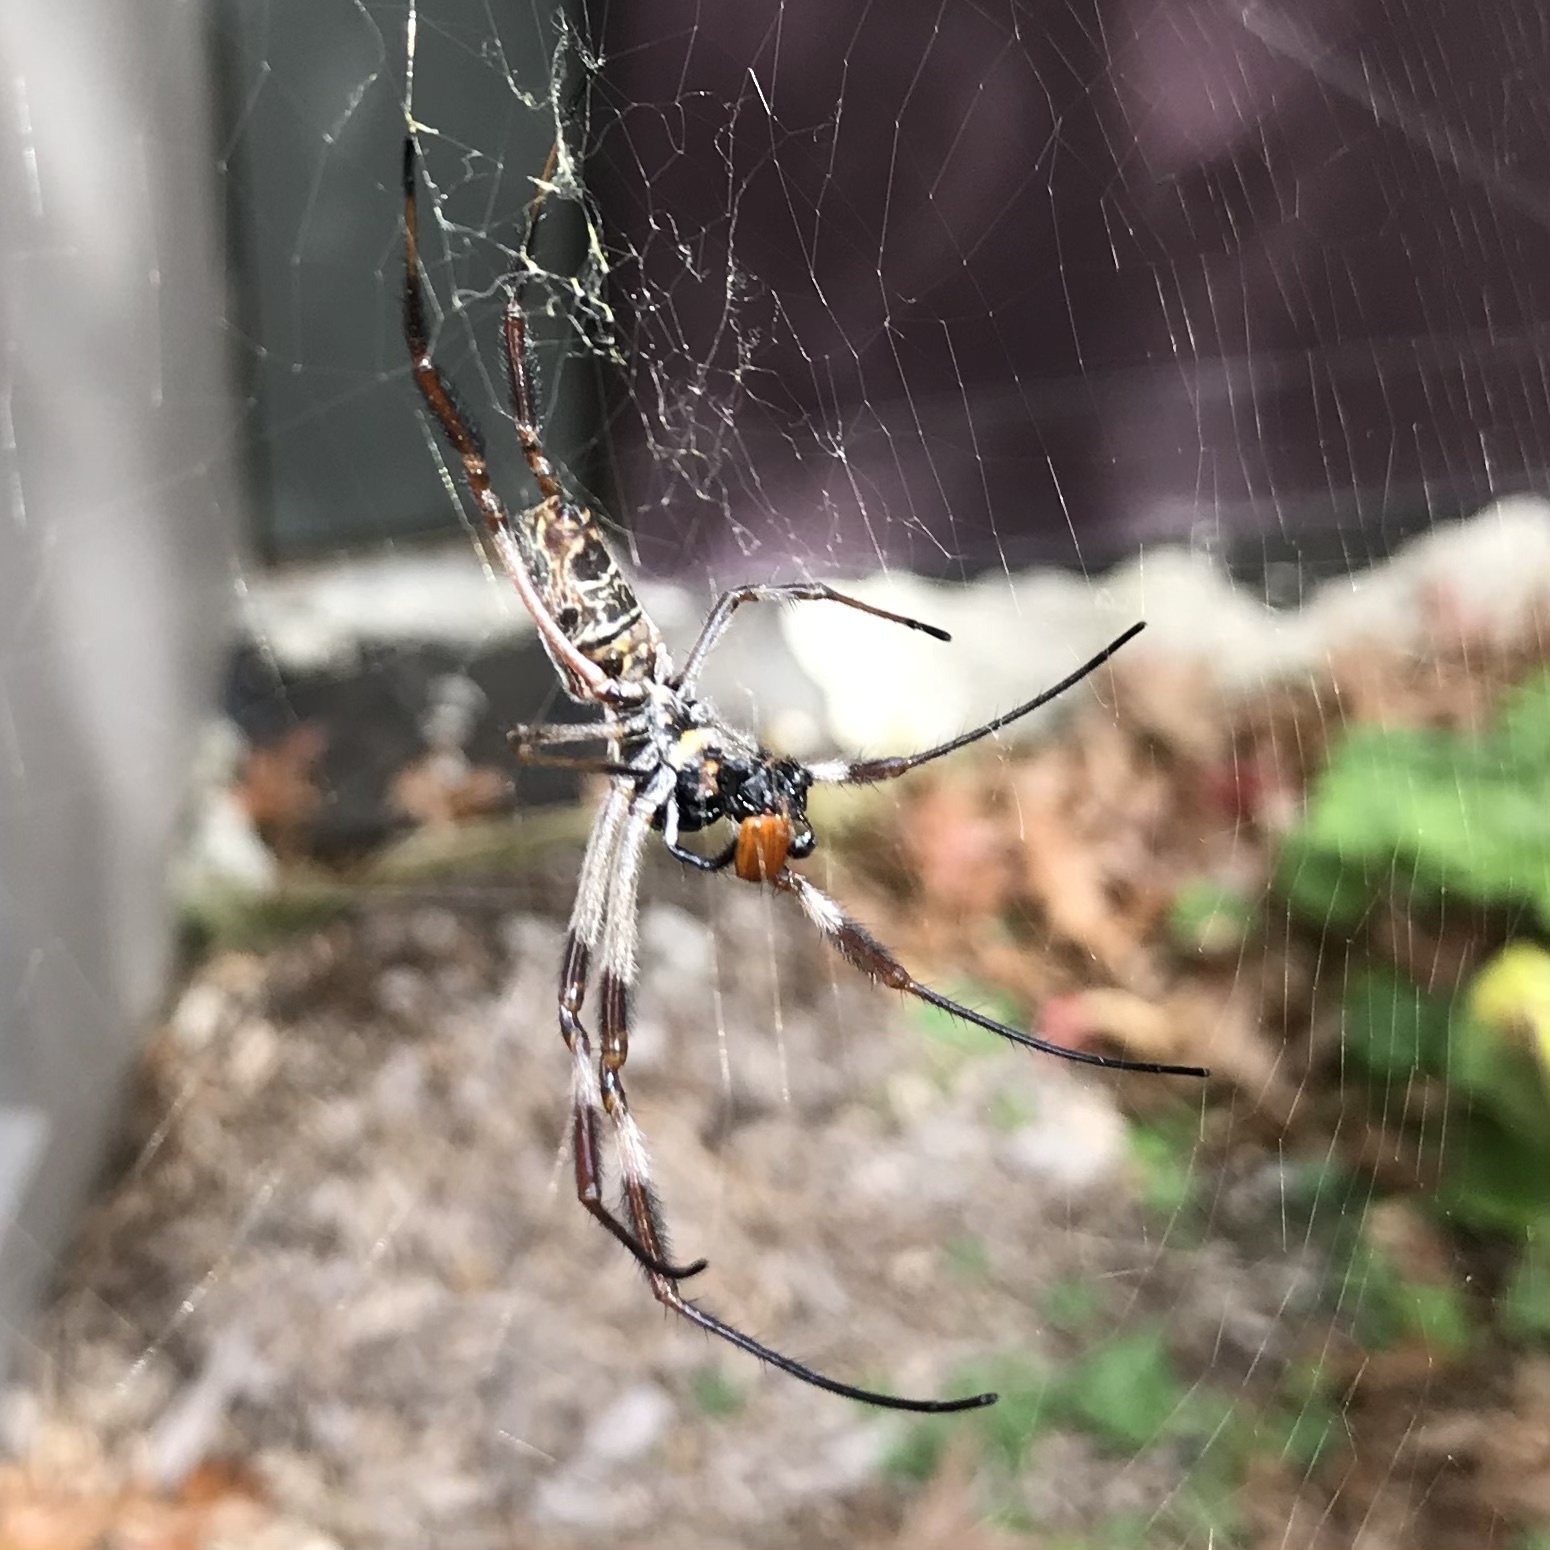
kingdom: Animalia
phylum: Arthropoda
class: Arachnida
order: Araneae
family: Araneidae
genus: Trichonephila
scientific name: Trichonephila edulis
